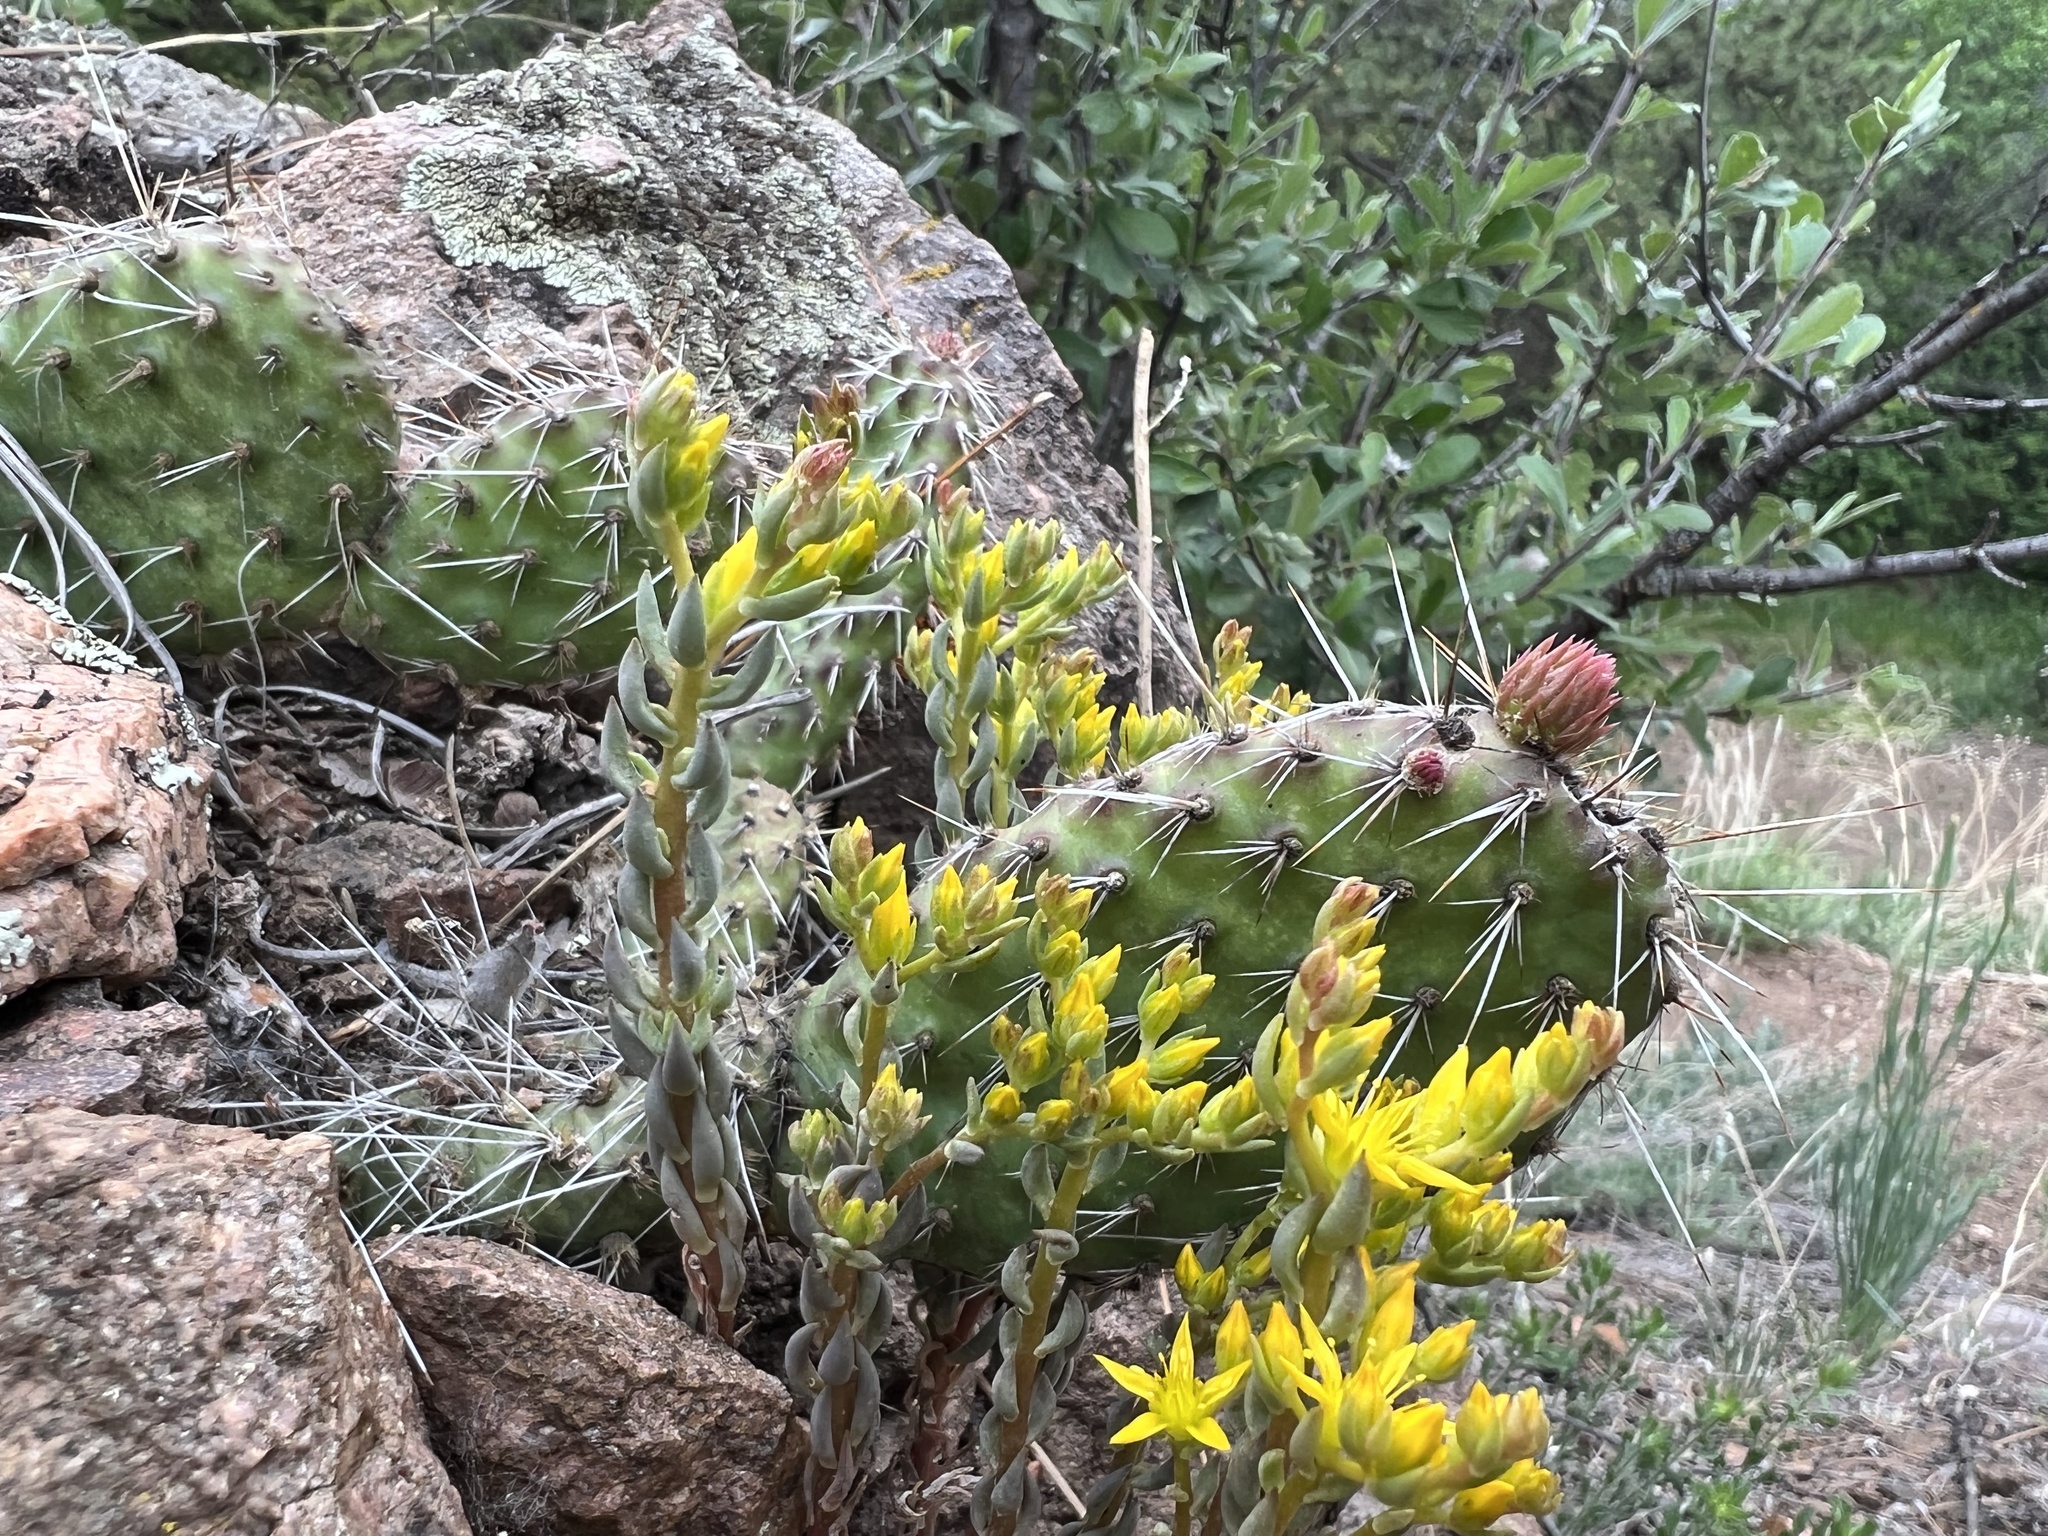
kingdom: Plantae
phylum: Tracheophyta
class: Magnoliopsida
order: Saxifragales
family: Crassulaceae
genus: Sedum
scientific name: Sedum lanceolatum
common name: Common stonecrop
